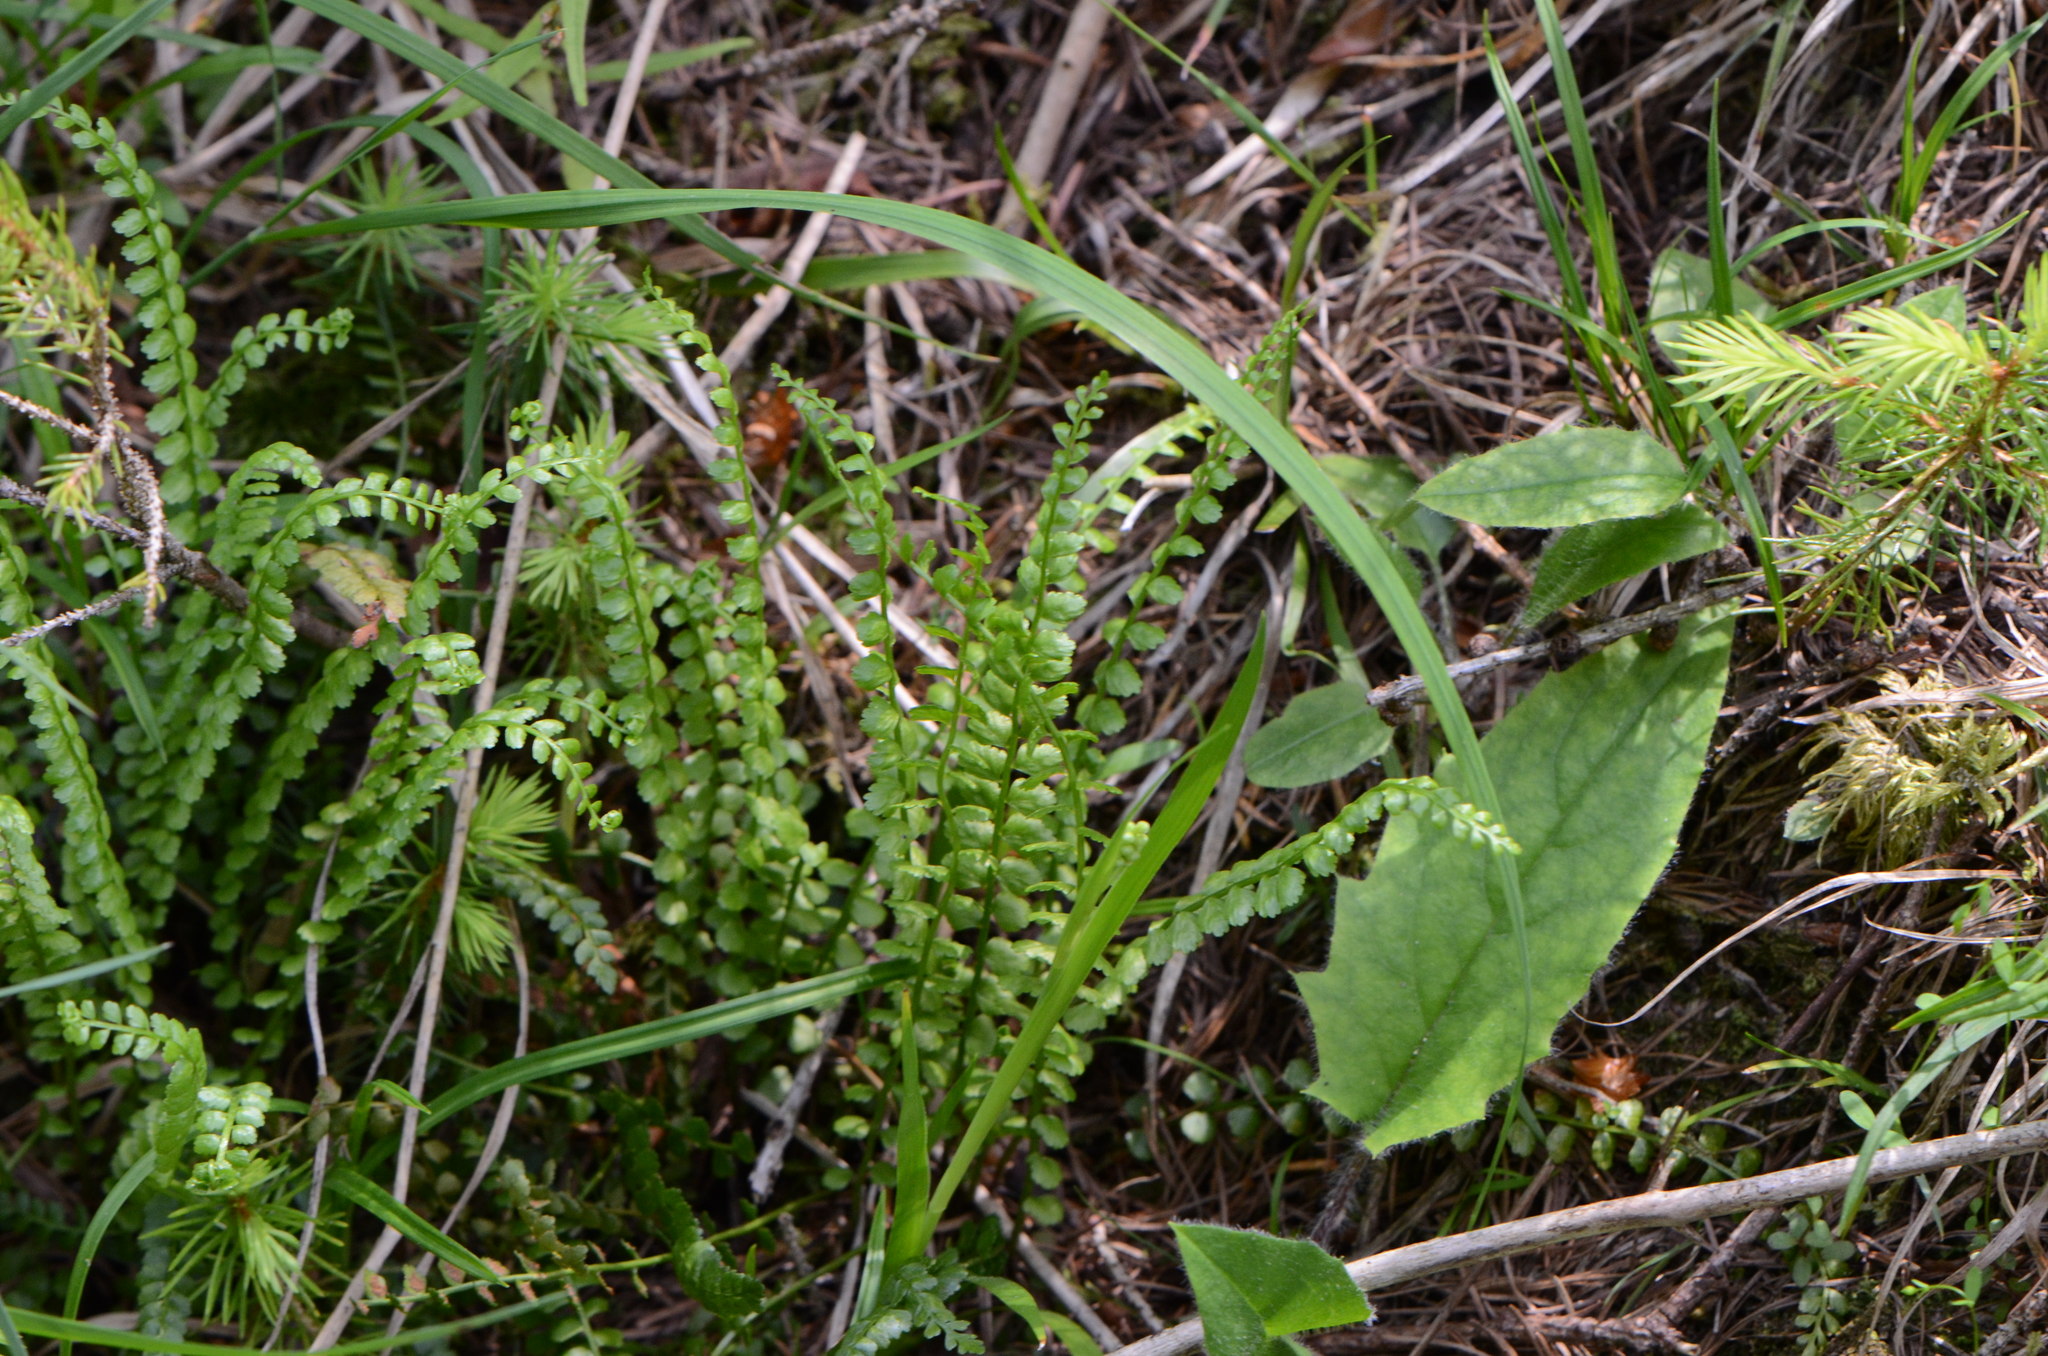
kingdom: Plantae
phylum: Tracheophyta
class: Polypodiopsida
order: Polypodiales
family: Aspleniaceae
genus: Asplenium
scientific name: Asplenium viride
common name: Green spleenwort
